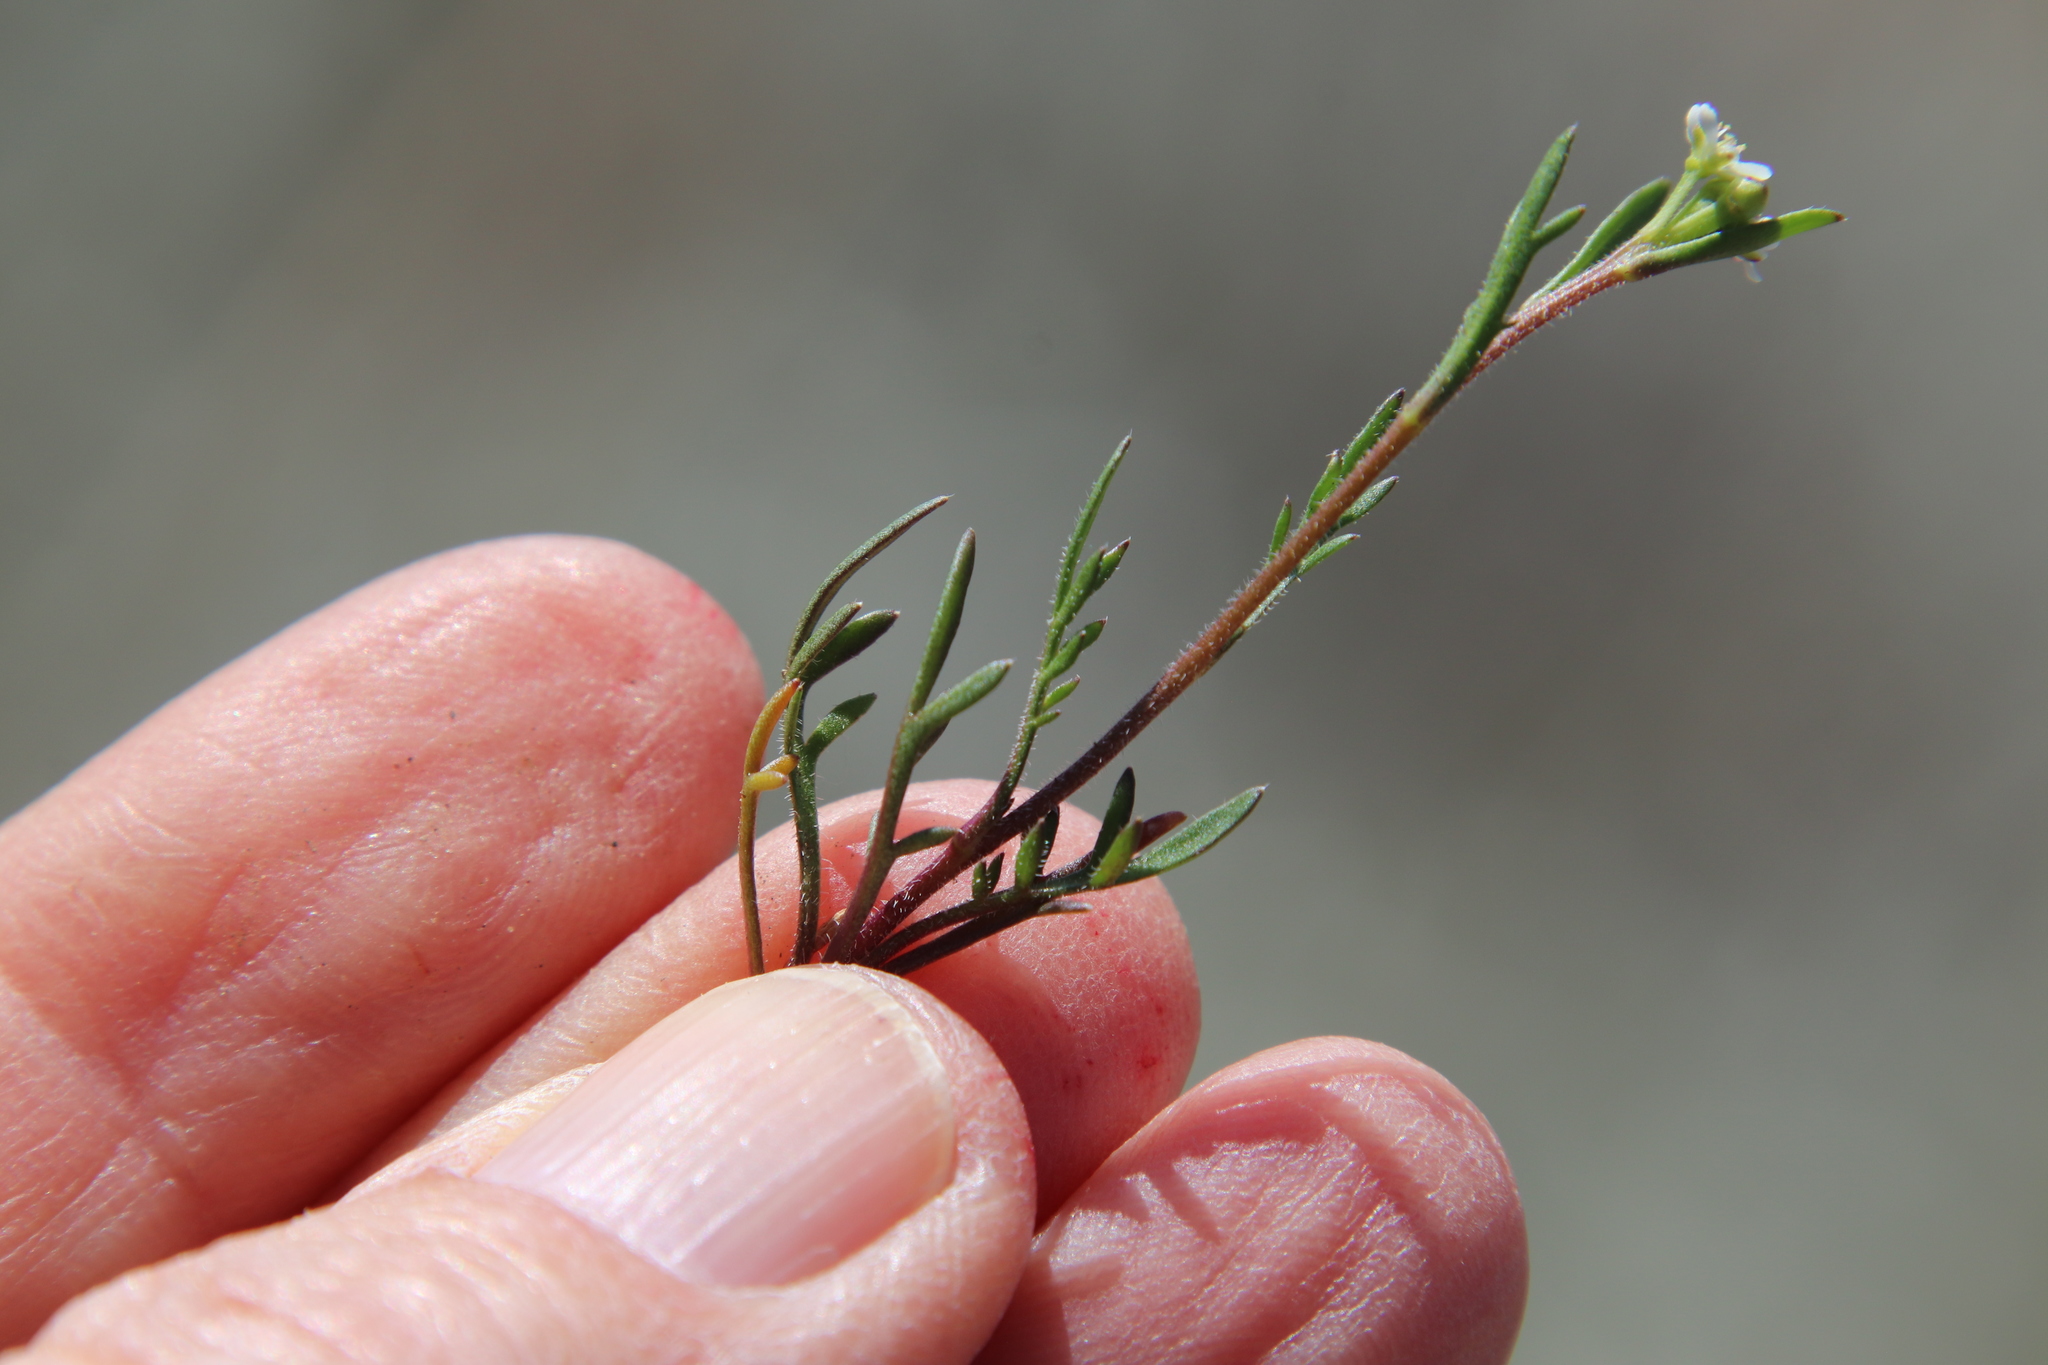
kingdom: Plantae
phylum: Tracheophyta
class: Magnoliopsida
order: Brassicales
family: Brassicaceae
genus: Lepidium
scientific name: Lepidium nitidum
